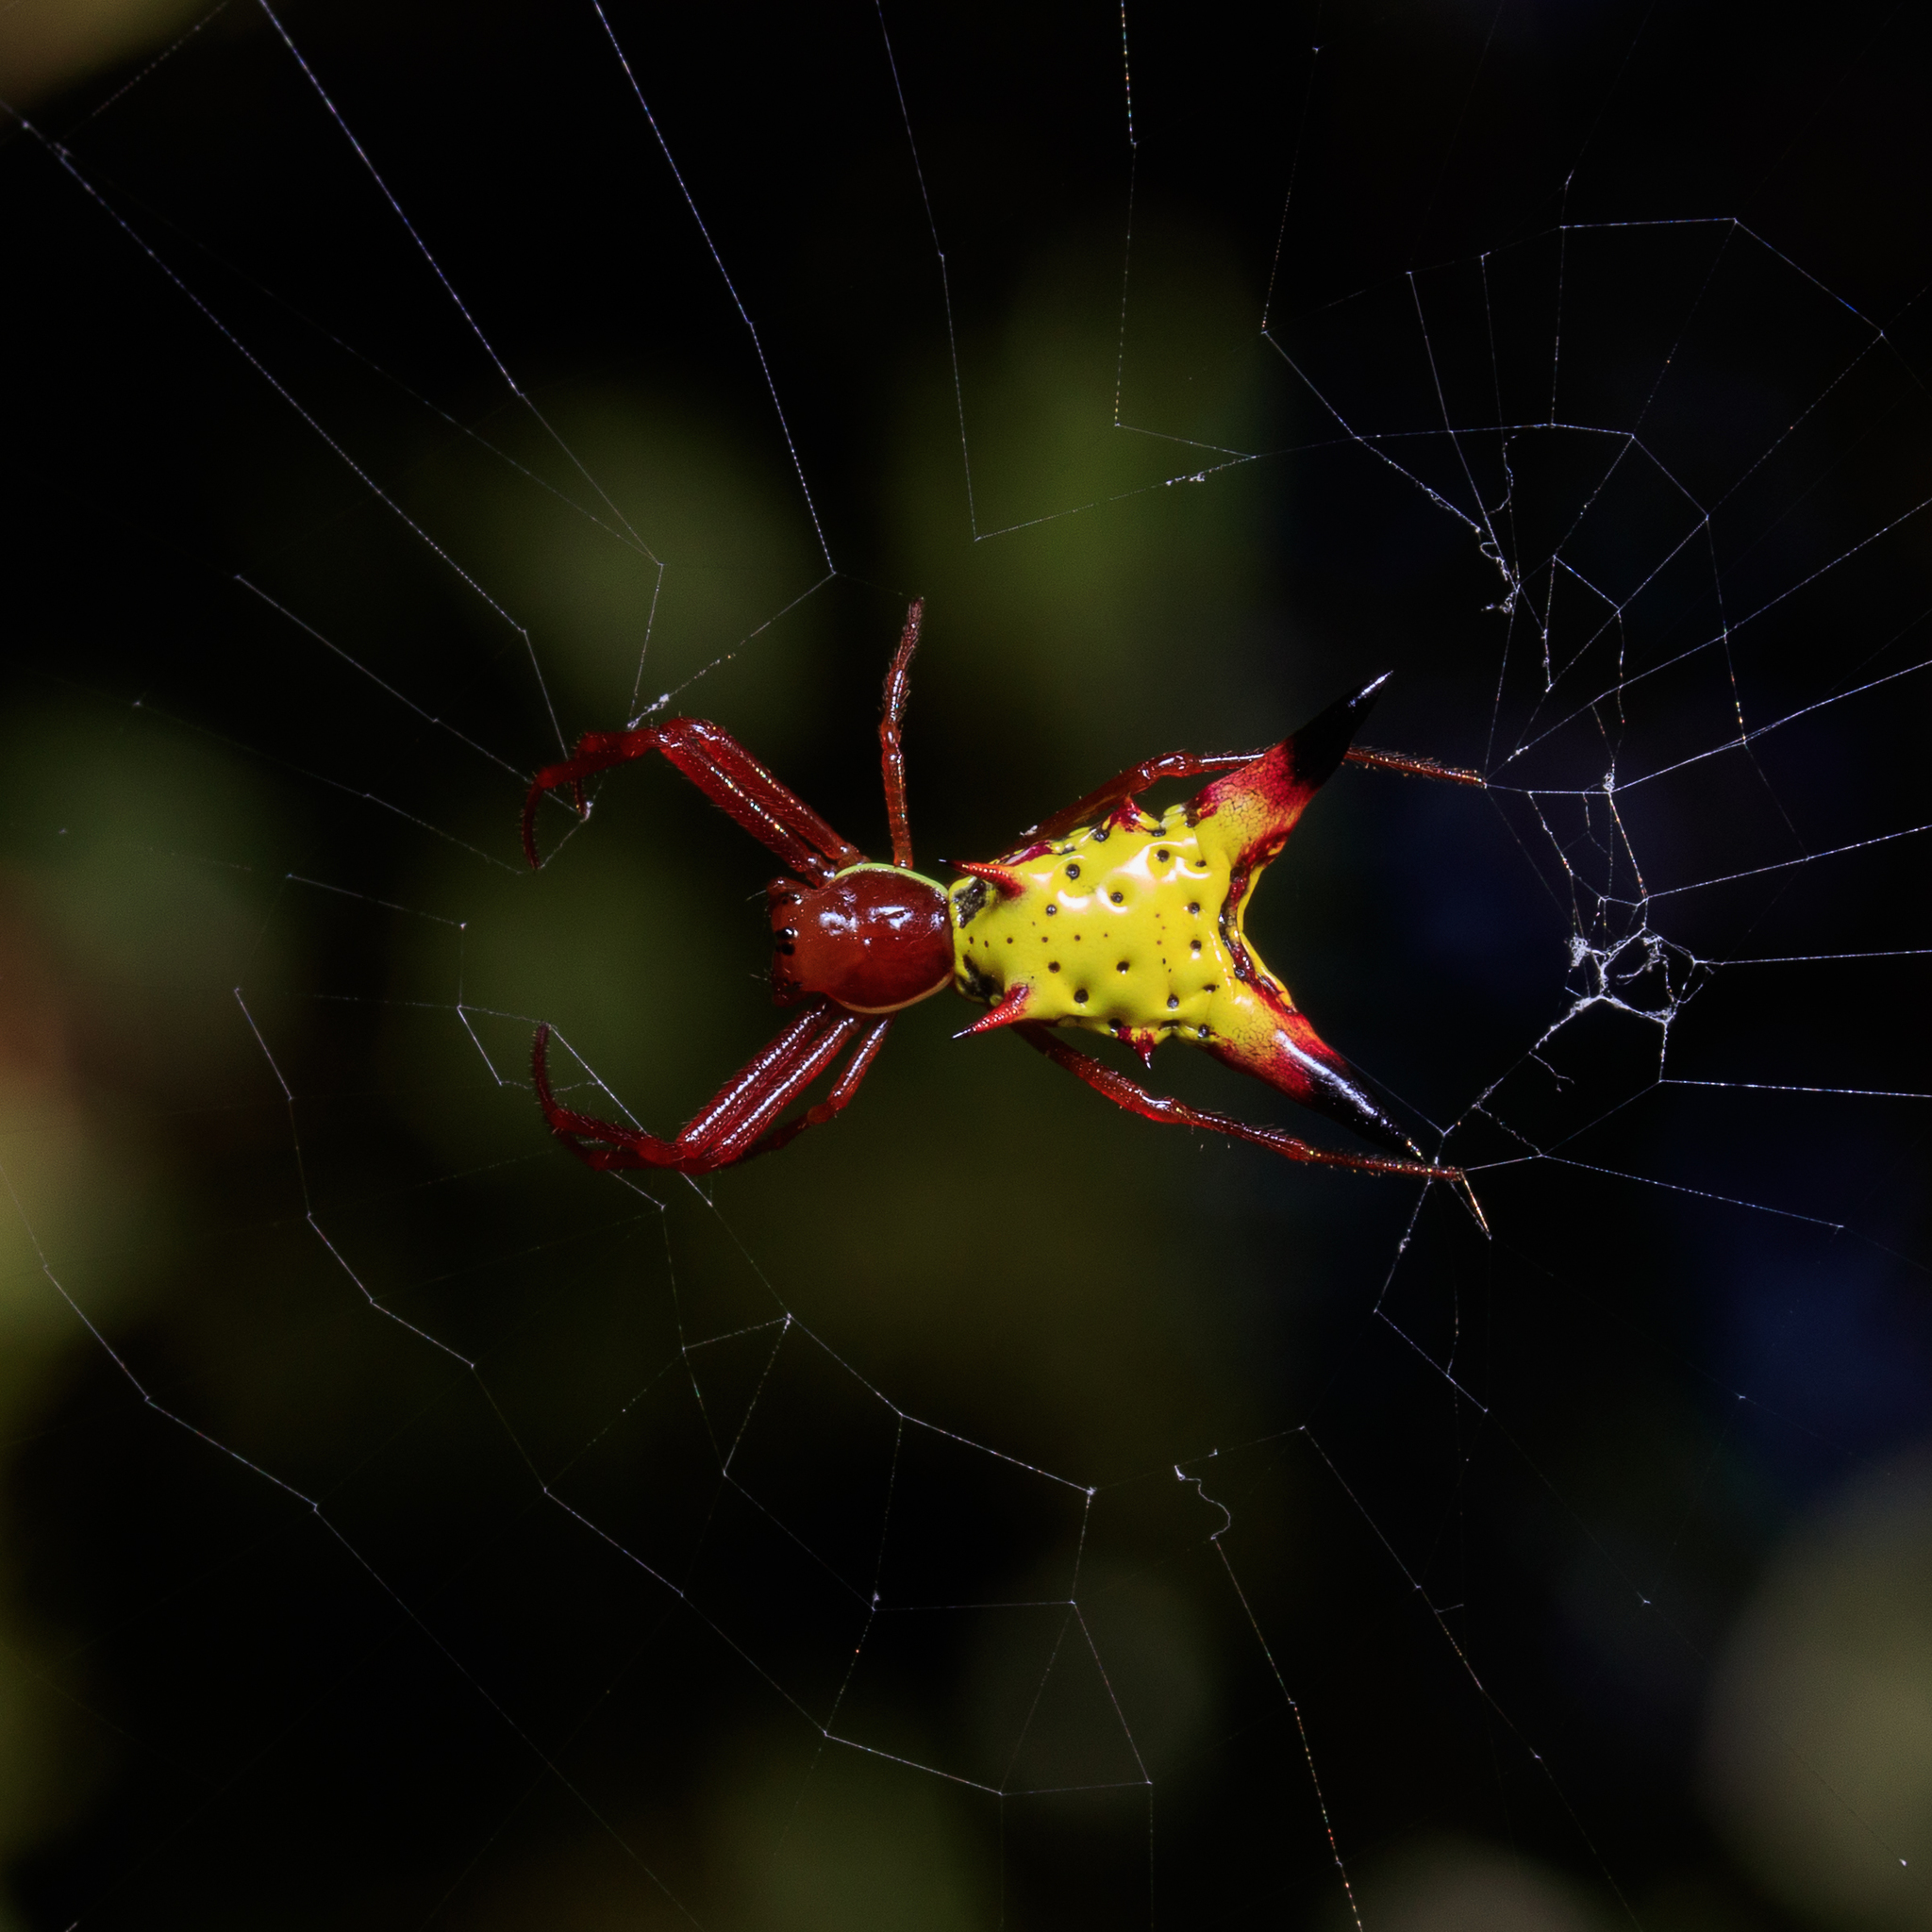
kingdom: Animalia
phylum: Arthropoda
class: Arachnida
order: Araneae
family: Araneidae
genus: Micrathena
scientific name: Micrathena sagittata
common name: Orb weavers
